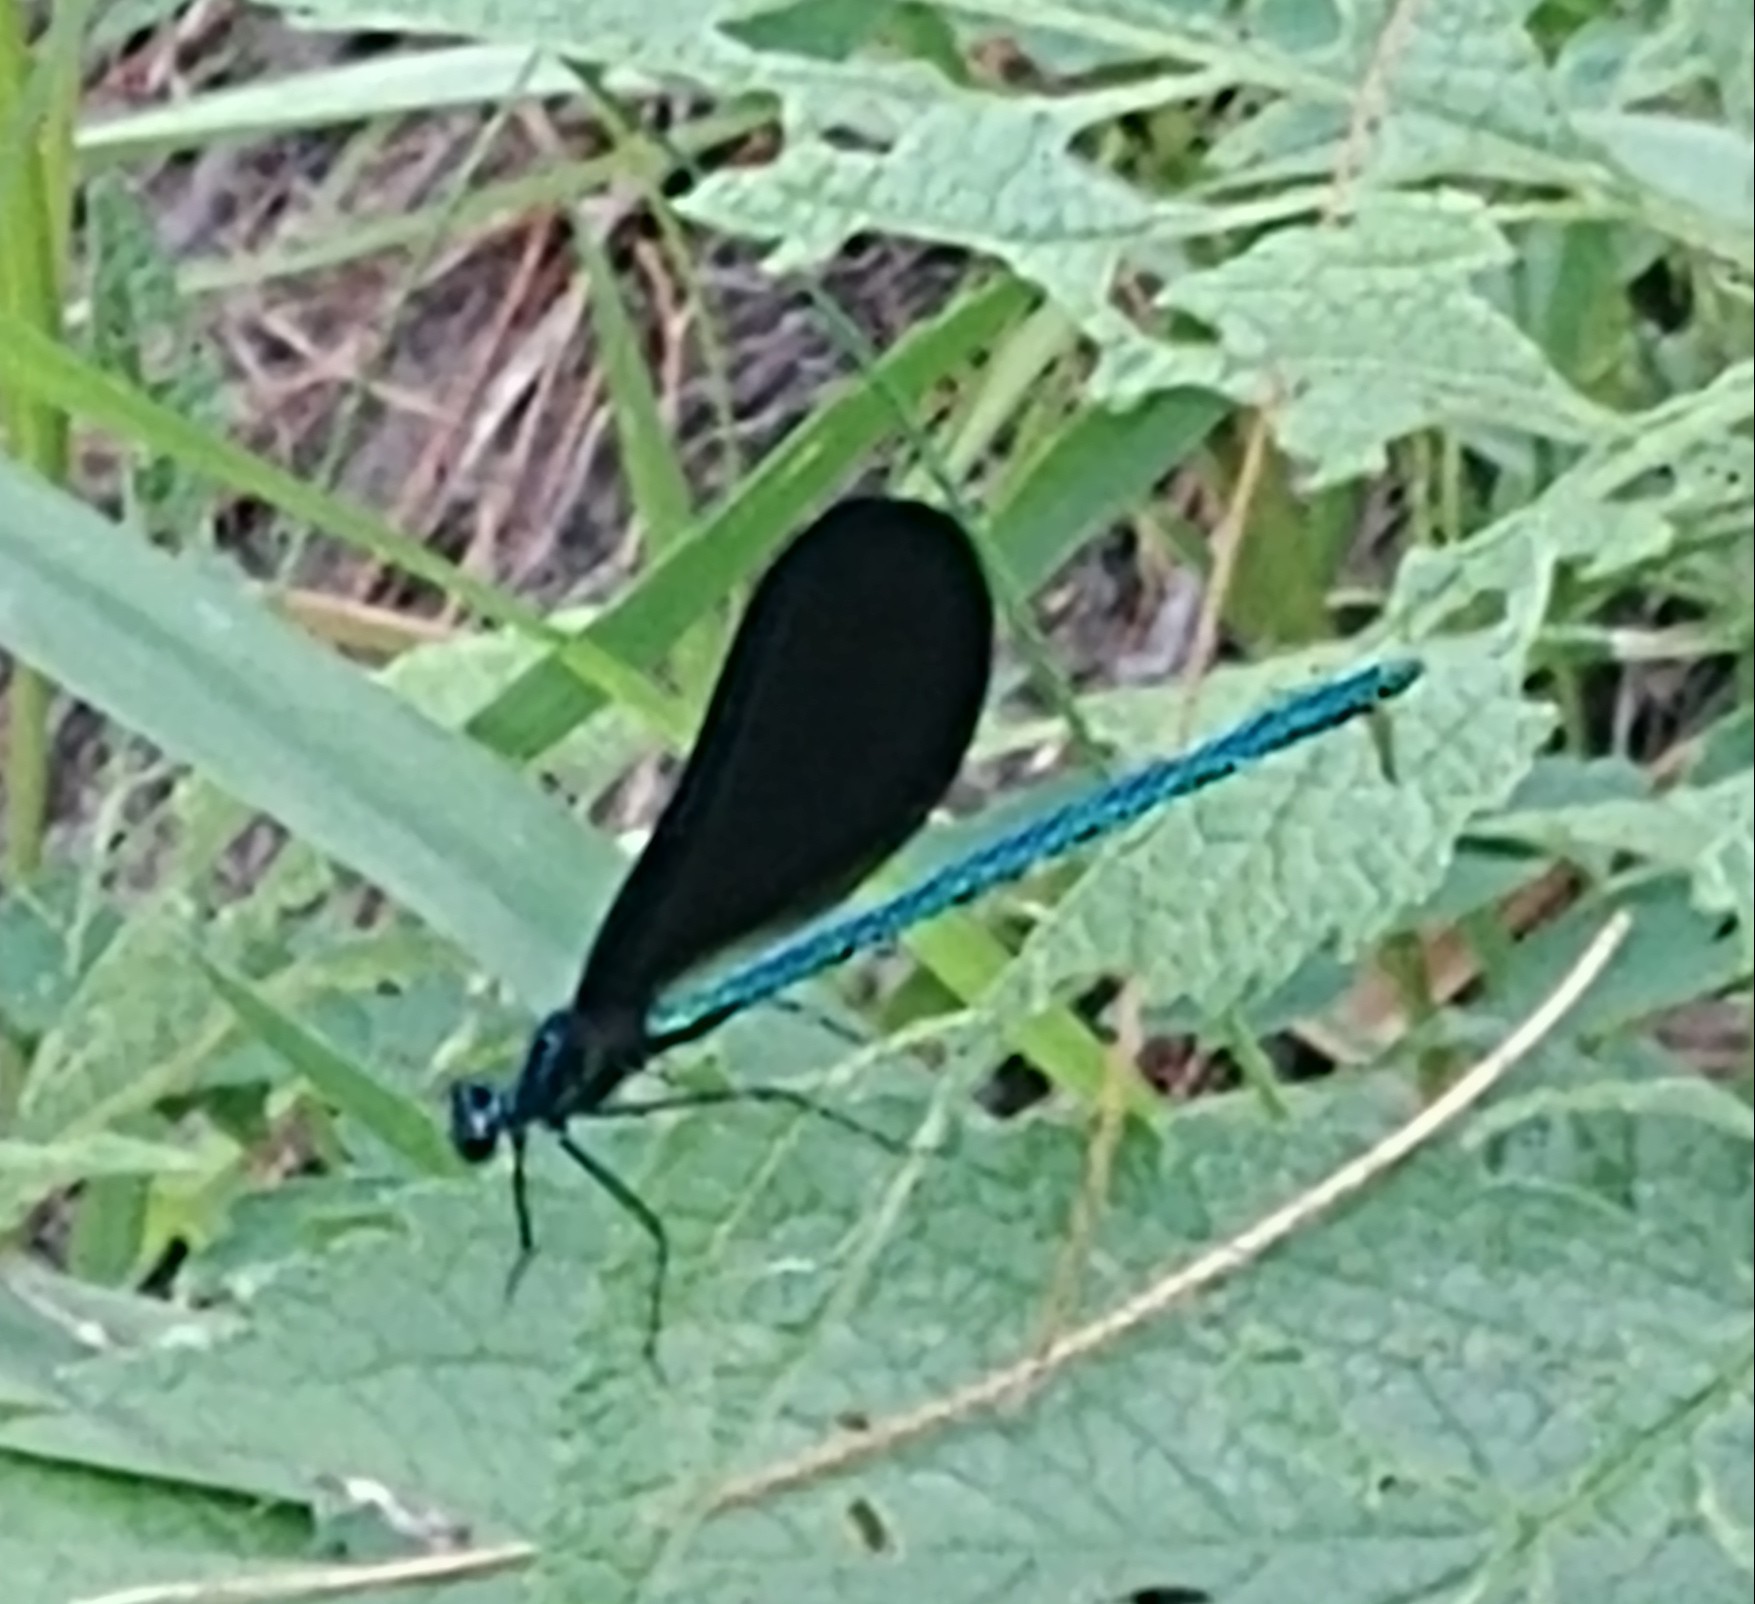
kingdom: Animalia
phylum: Arthropoda
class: Insecta
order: Odonata
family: Calopterygidae
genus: Calopteryx
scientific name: Calopteryx maculata
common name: Ebony jewelwing
